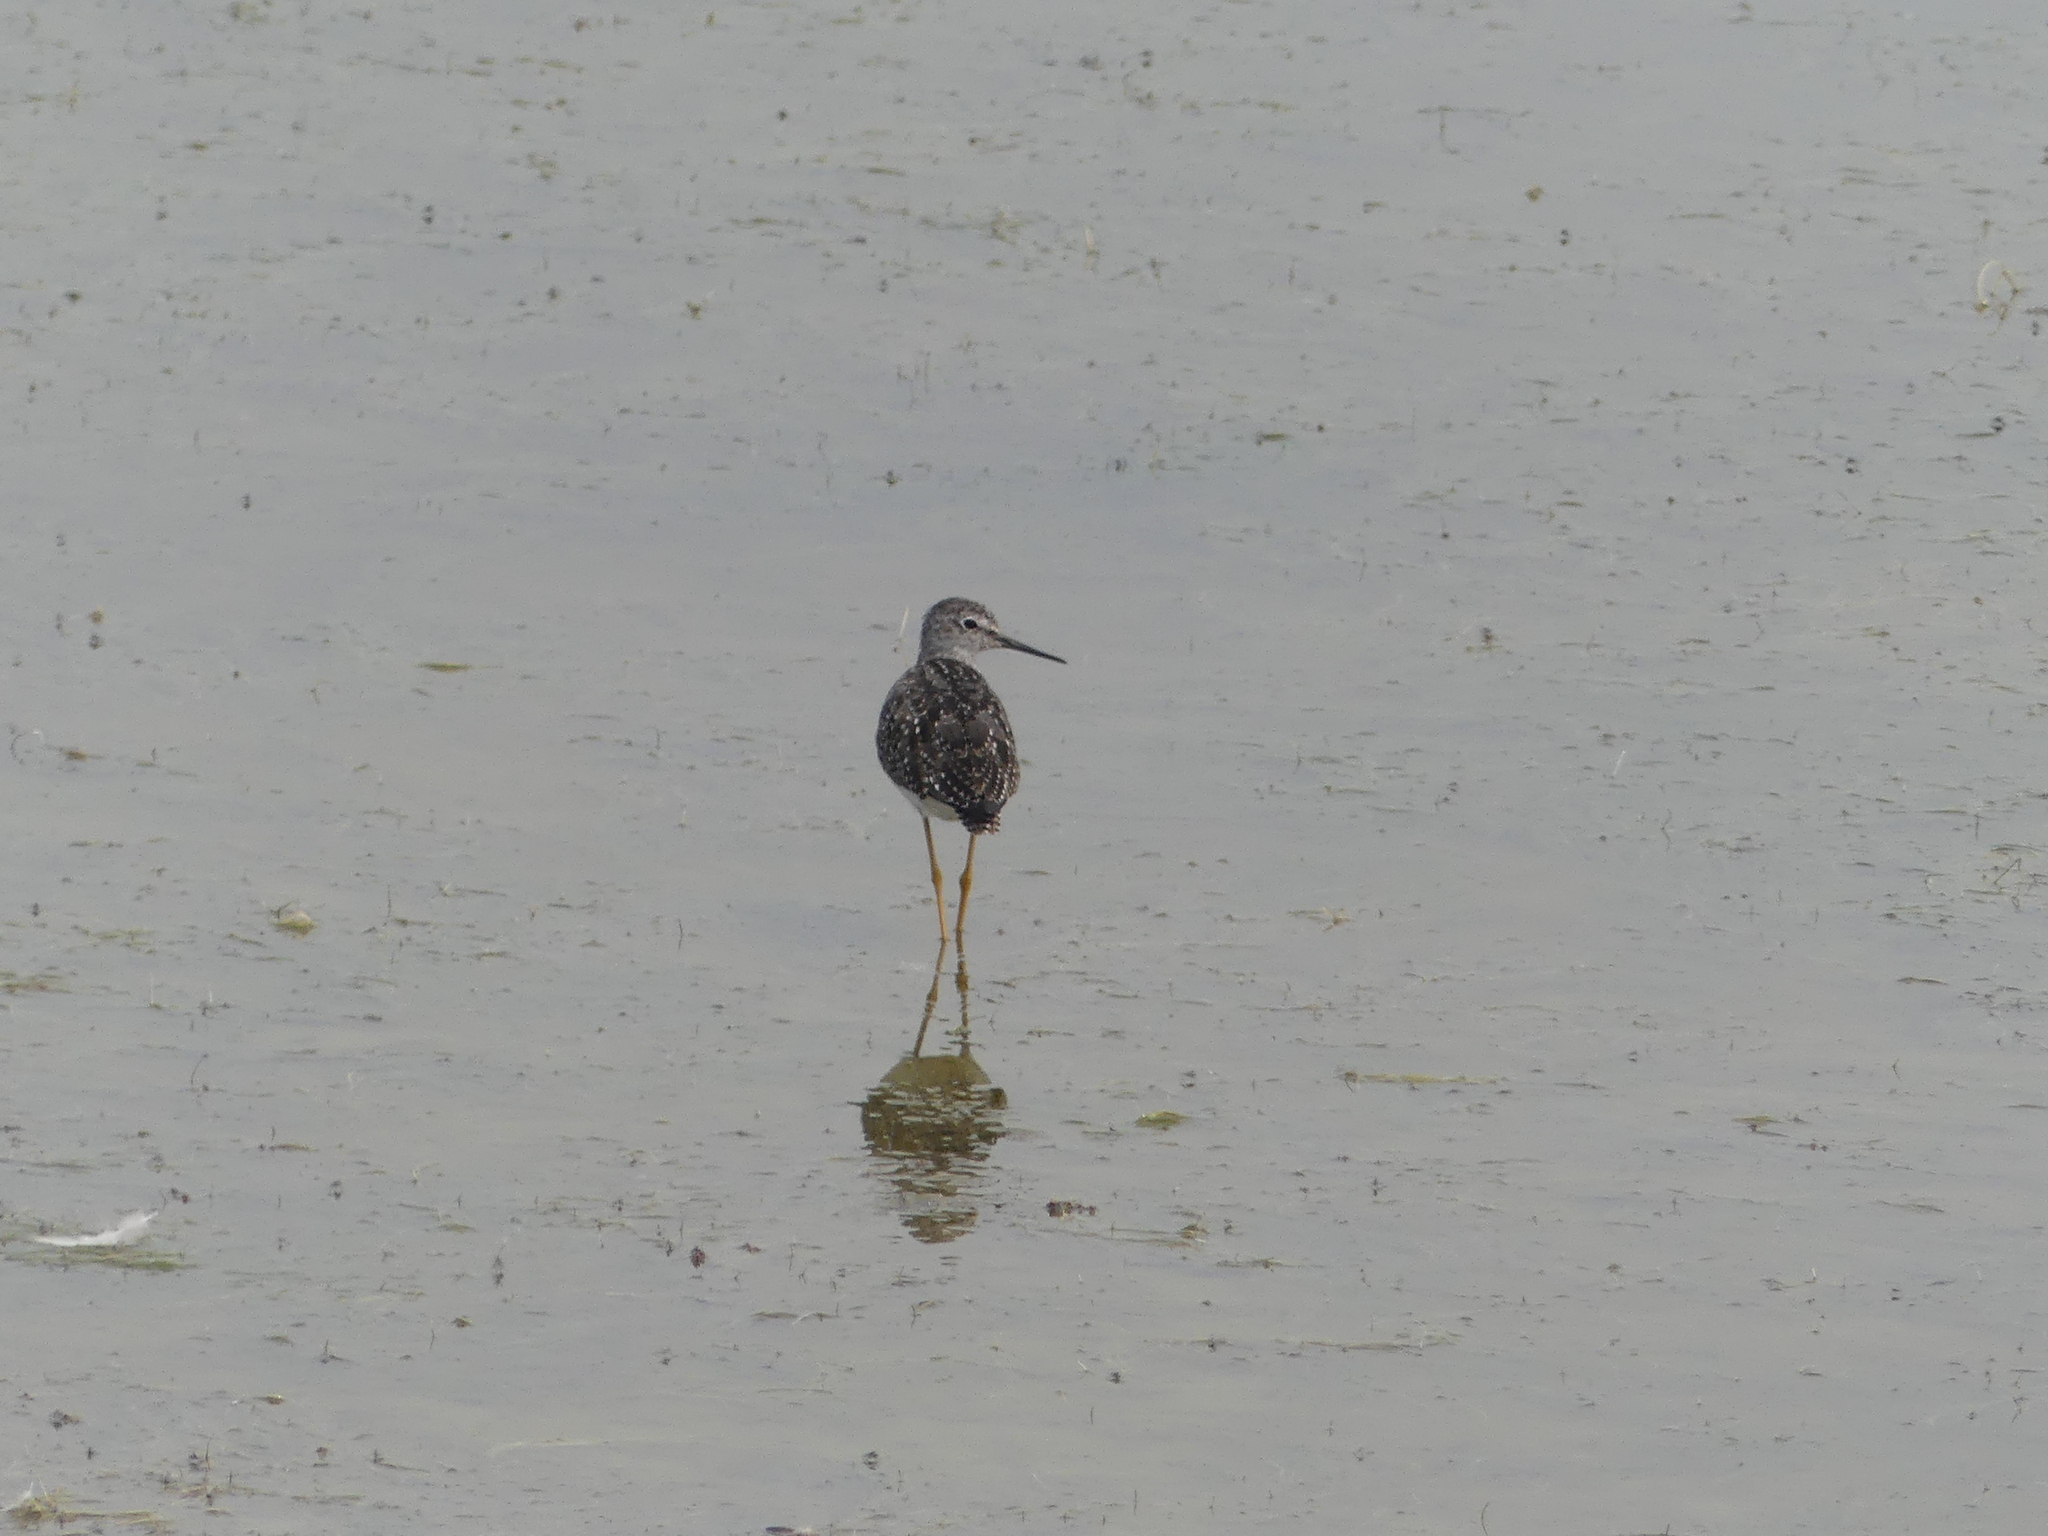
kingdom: Animalia
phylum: Chordata
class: Aves
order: Charadriiformes
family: Scolopacidae
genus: Tringa
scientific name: Tringa flavipes
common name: Lesser yellowlegs
